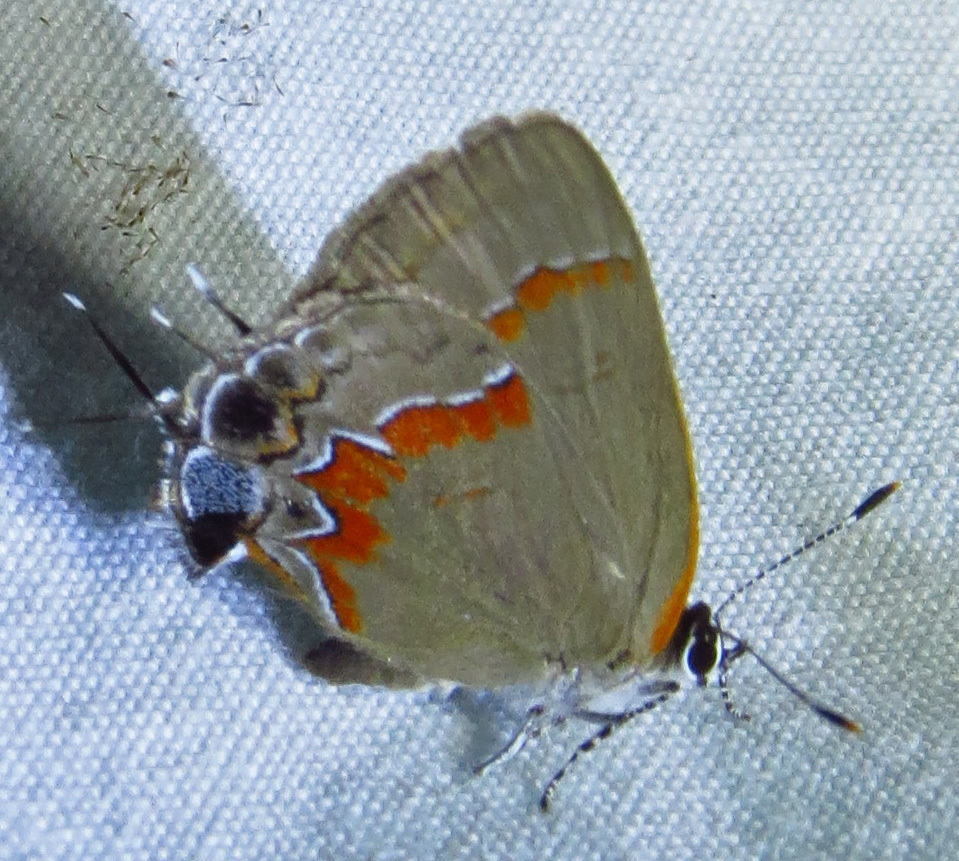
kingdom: Animalia
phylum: Arthropoda
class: Insecta
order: Lepidoptera
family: Lycaenidae
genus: Calycopis
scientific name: Calycopis cecrops
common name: Red-banded hairstreak
